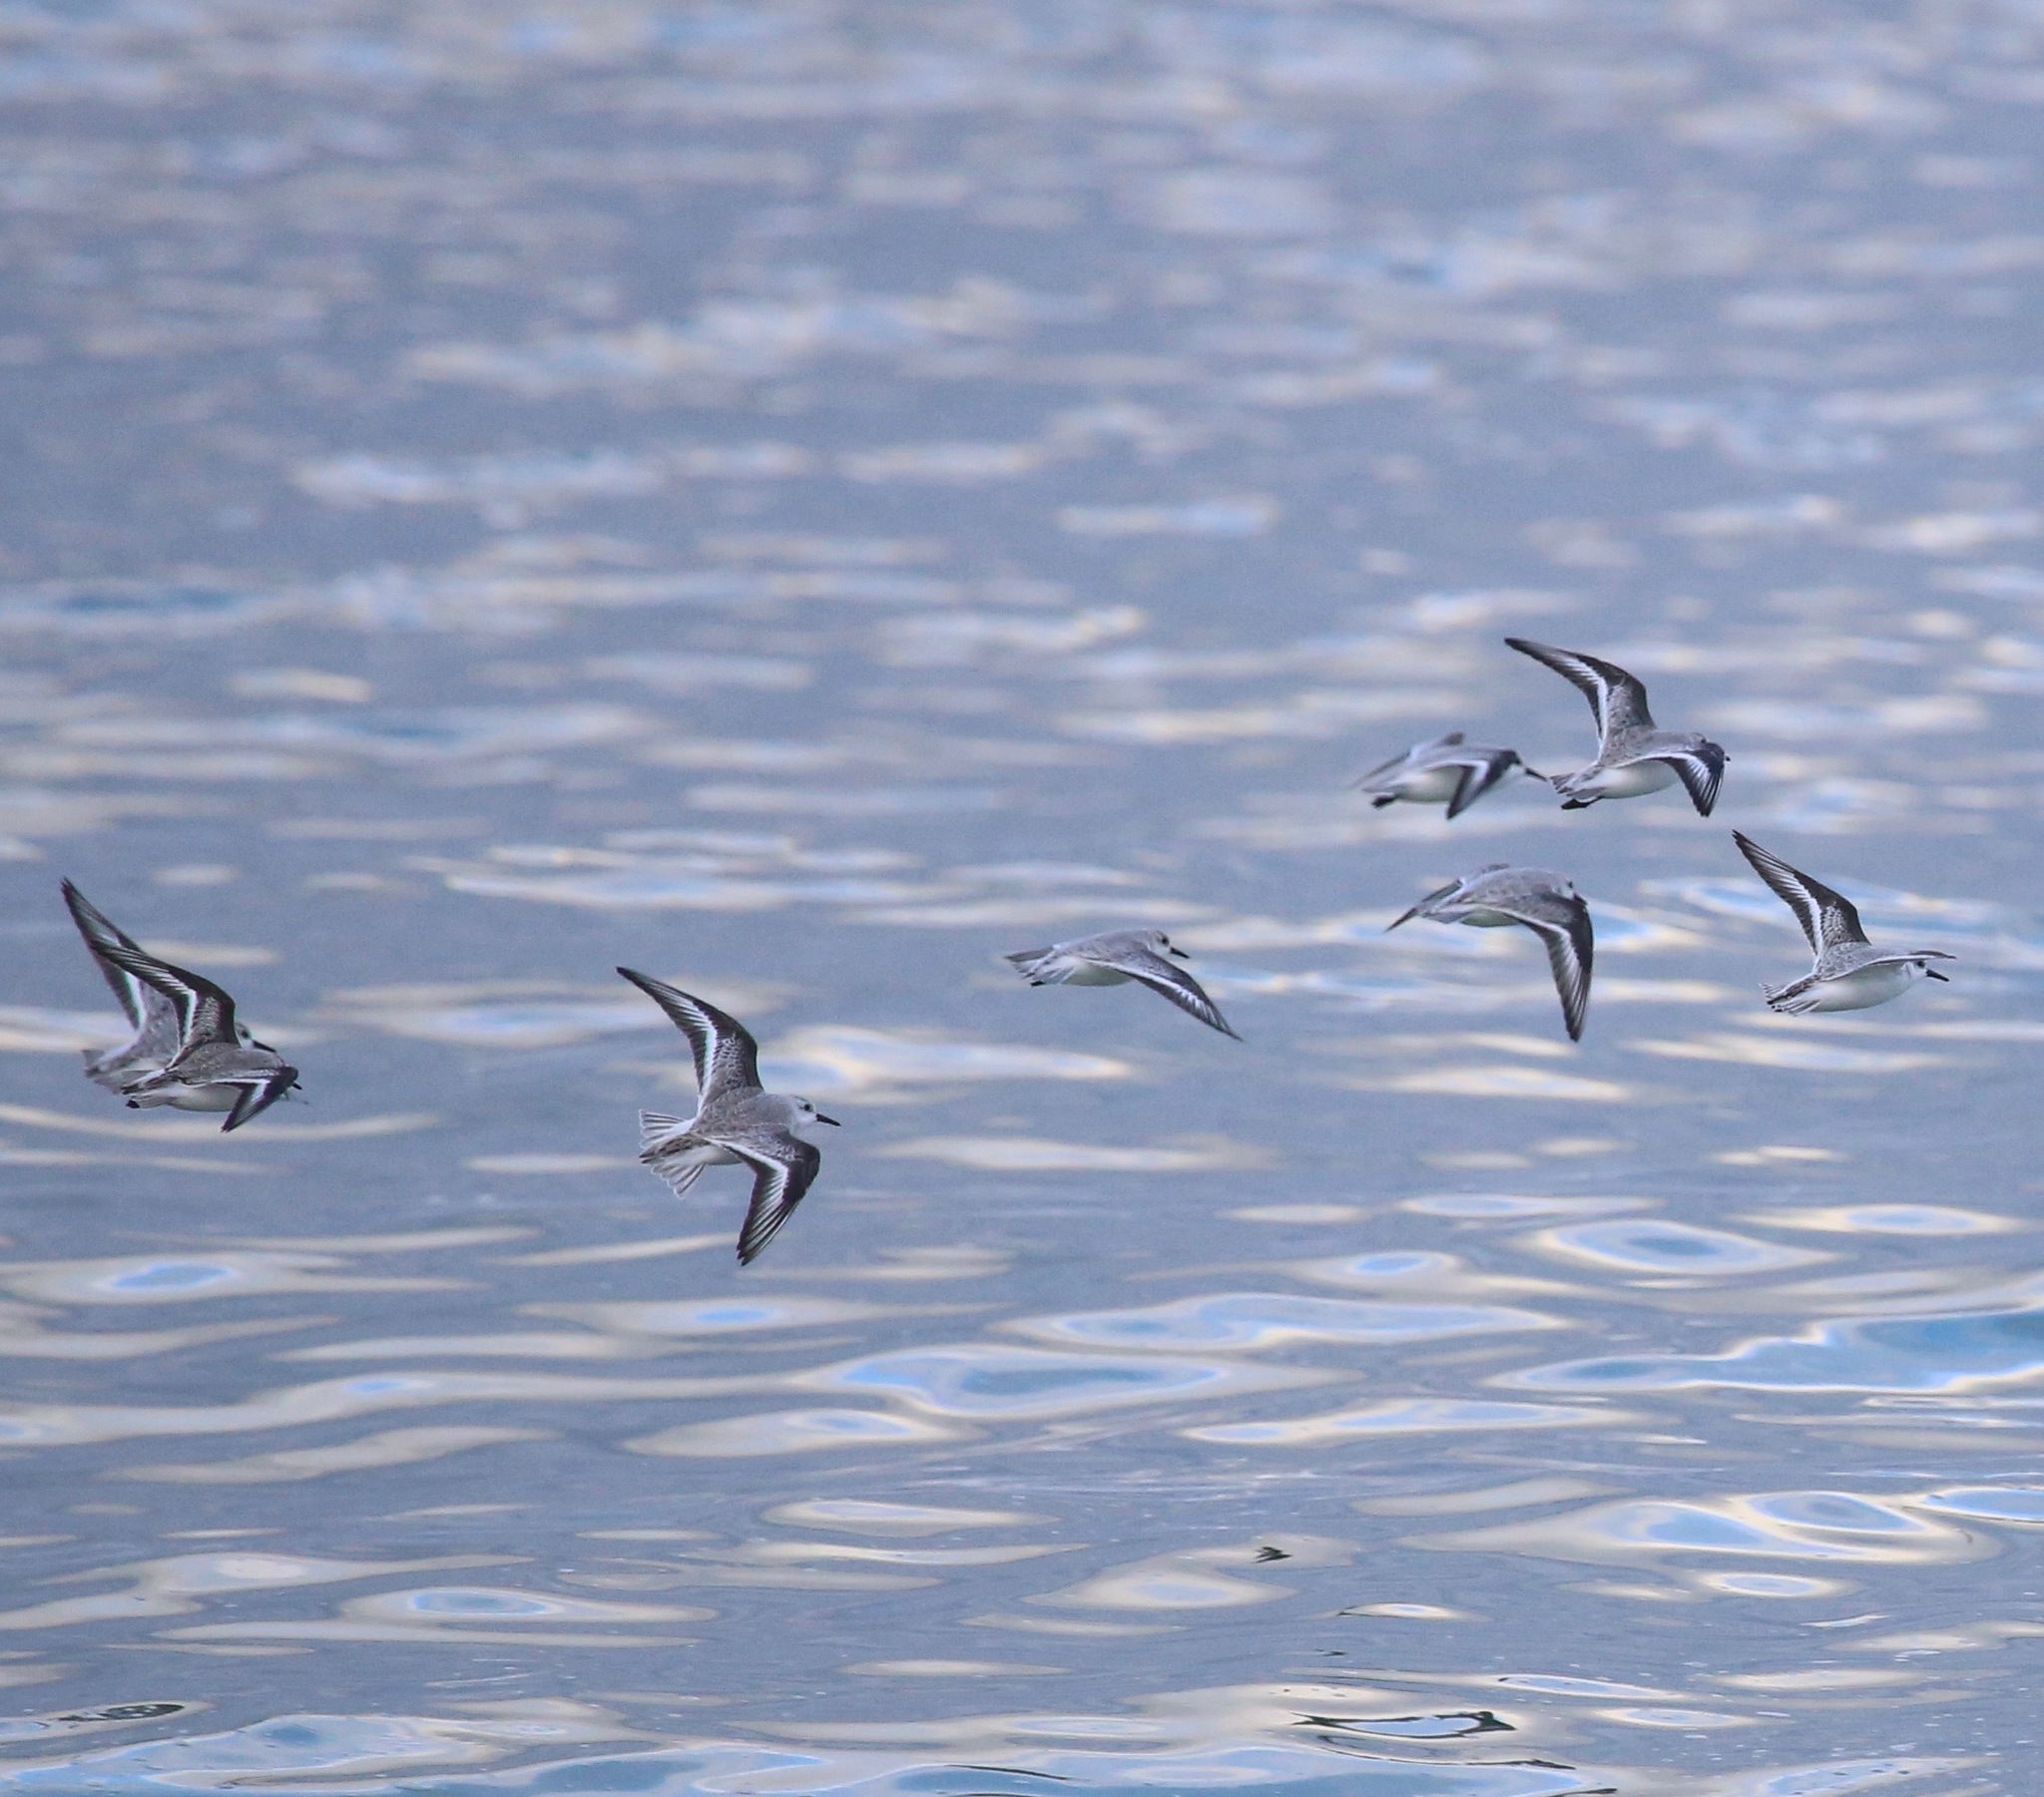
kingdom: Animalia
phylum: Chordata
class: Aves
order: Charadriiformes
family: Scolopacidae
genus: Calidris
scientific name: Calidris alba
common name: Sanderling
